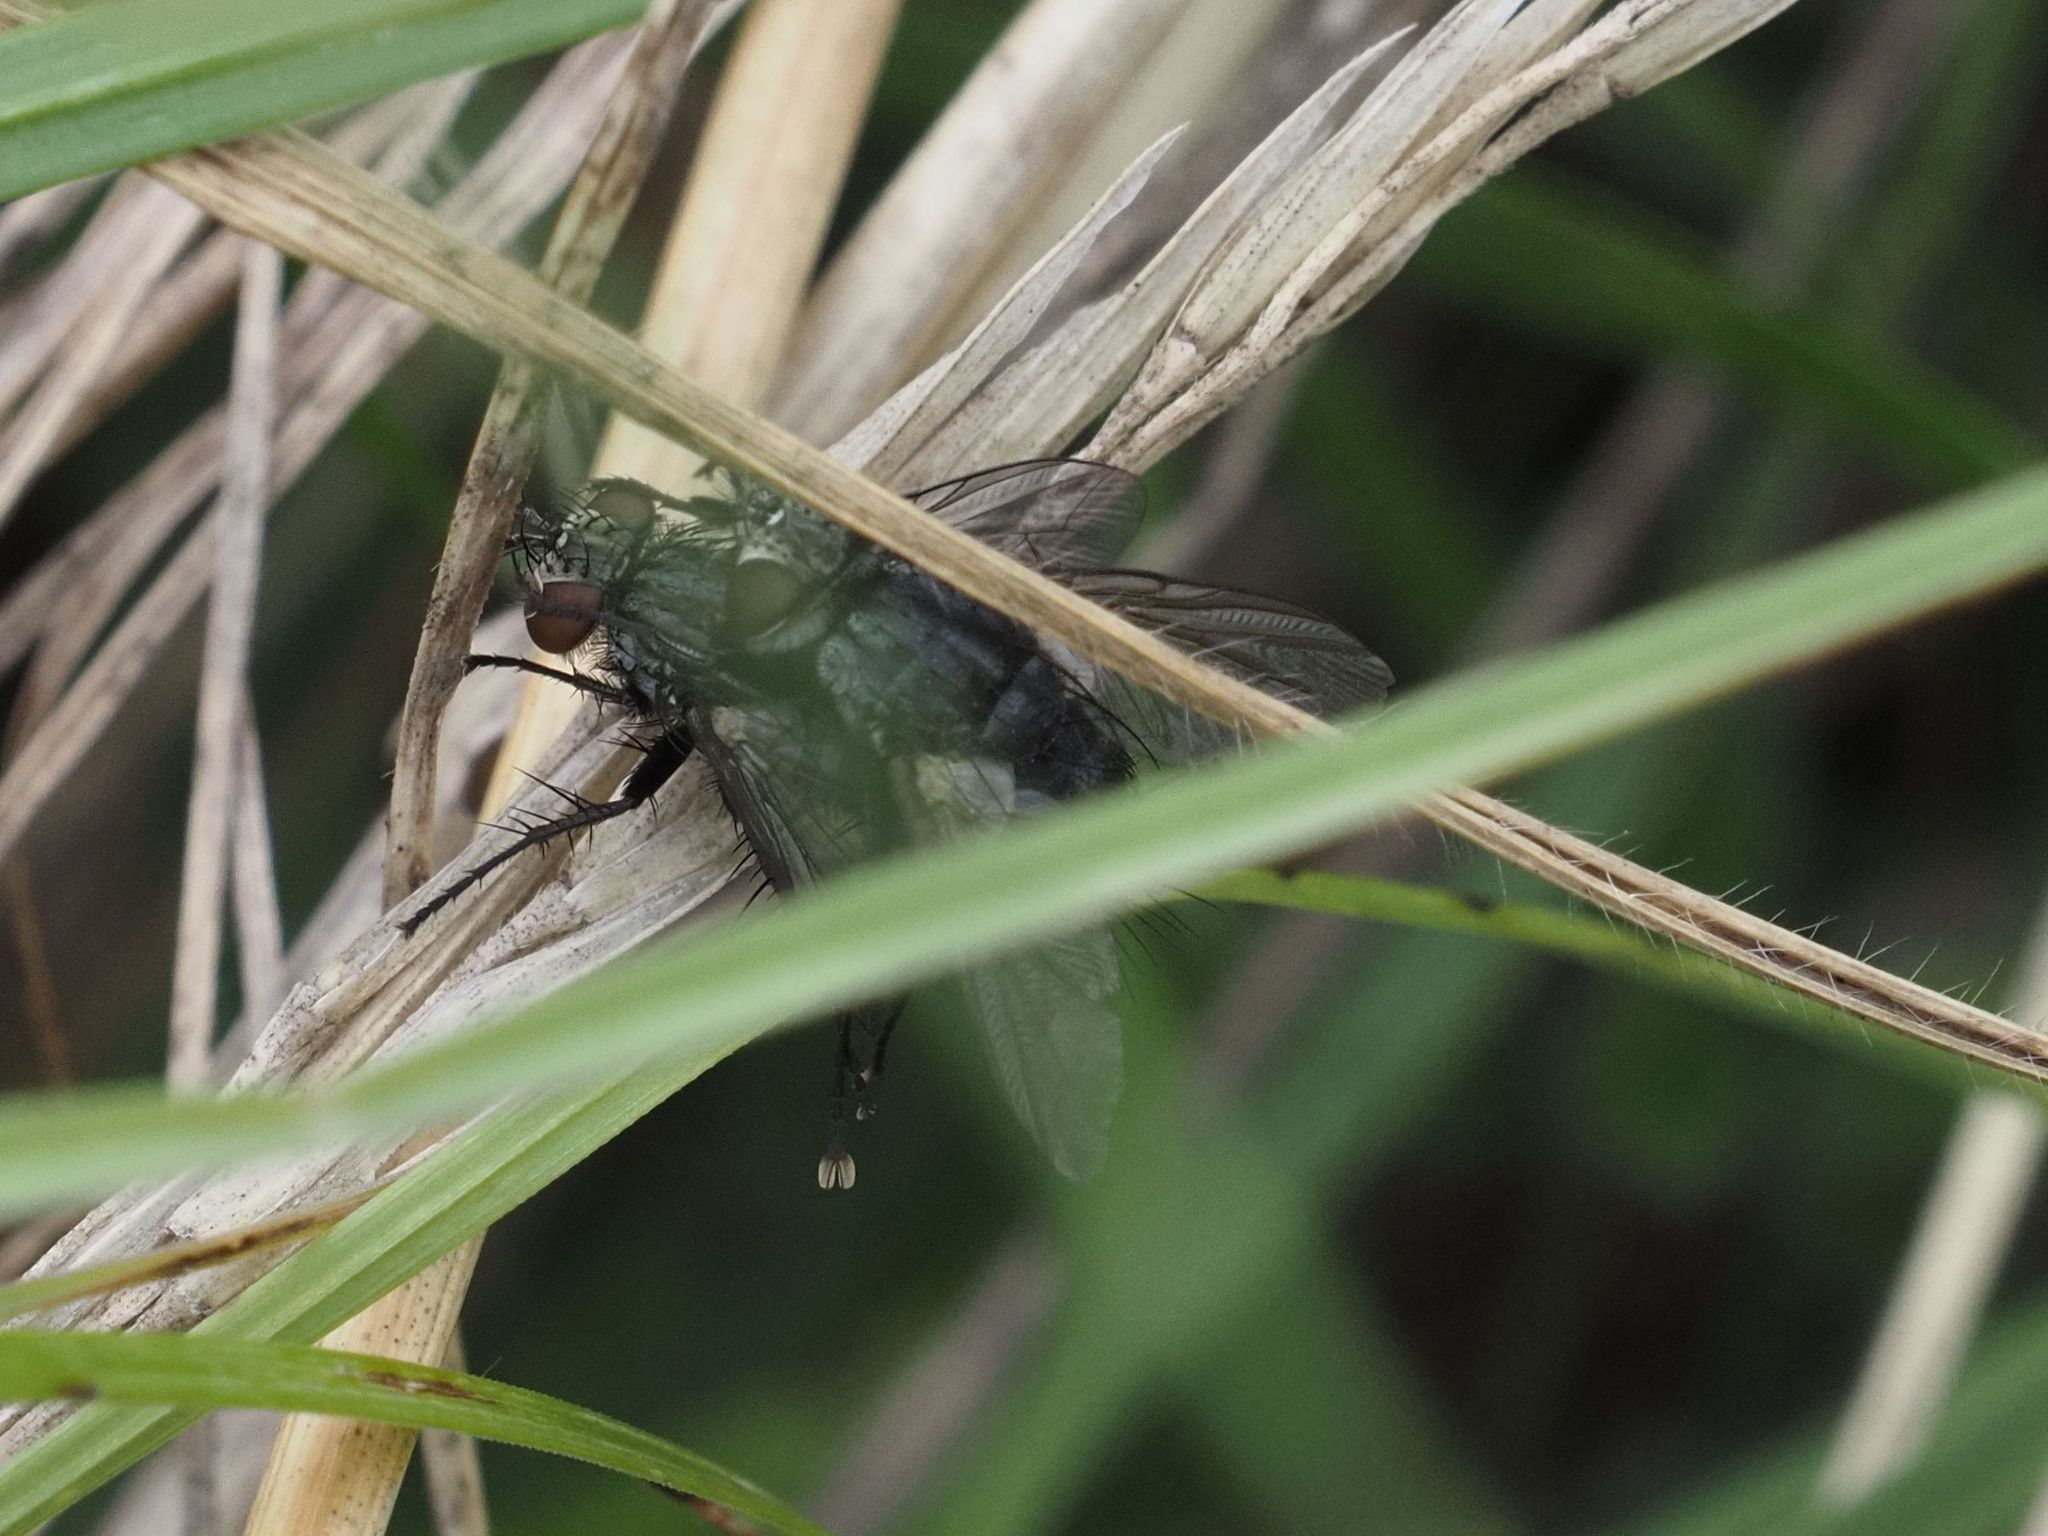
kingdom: Animalia
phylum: Arthropoda
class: Insecta
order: Diptera
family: Tachinidae
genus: Voria
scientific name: Voria ruralis
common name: Parasitic fly
